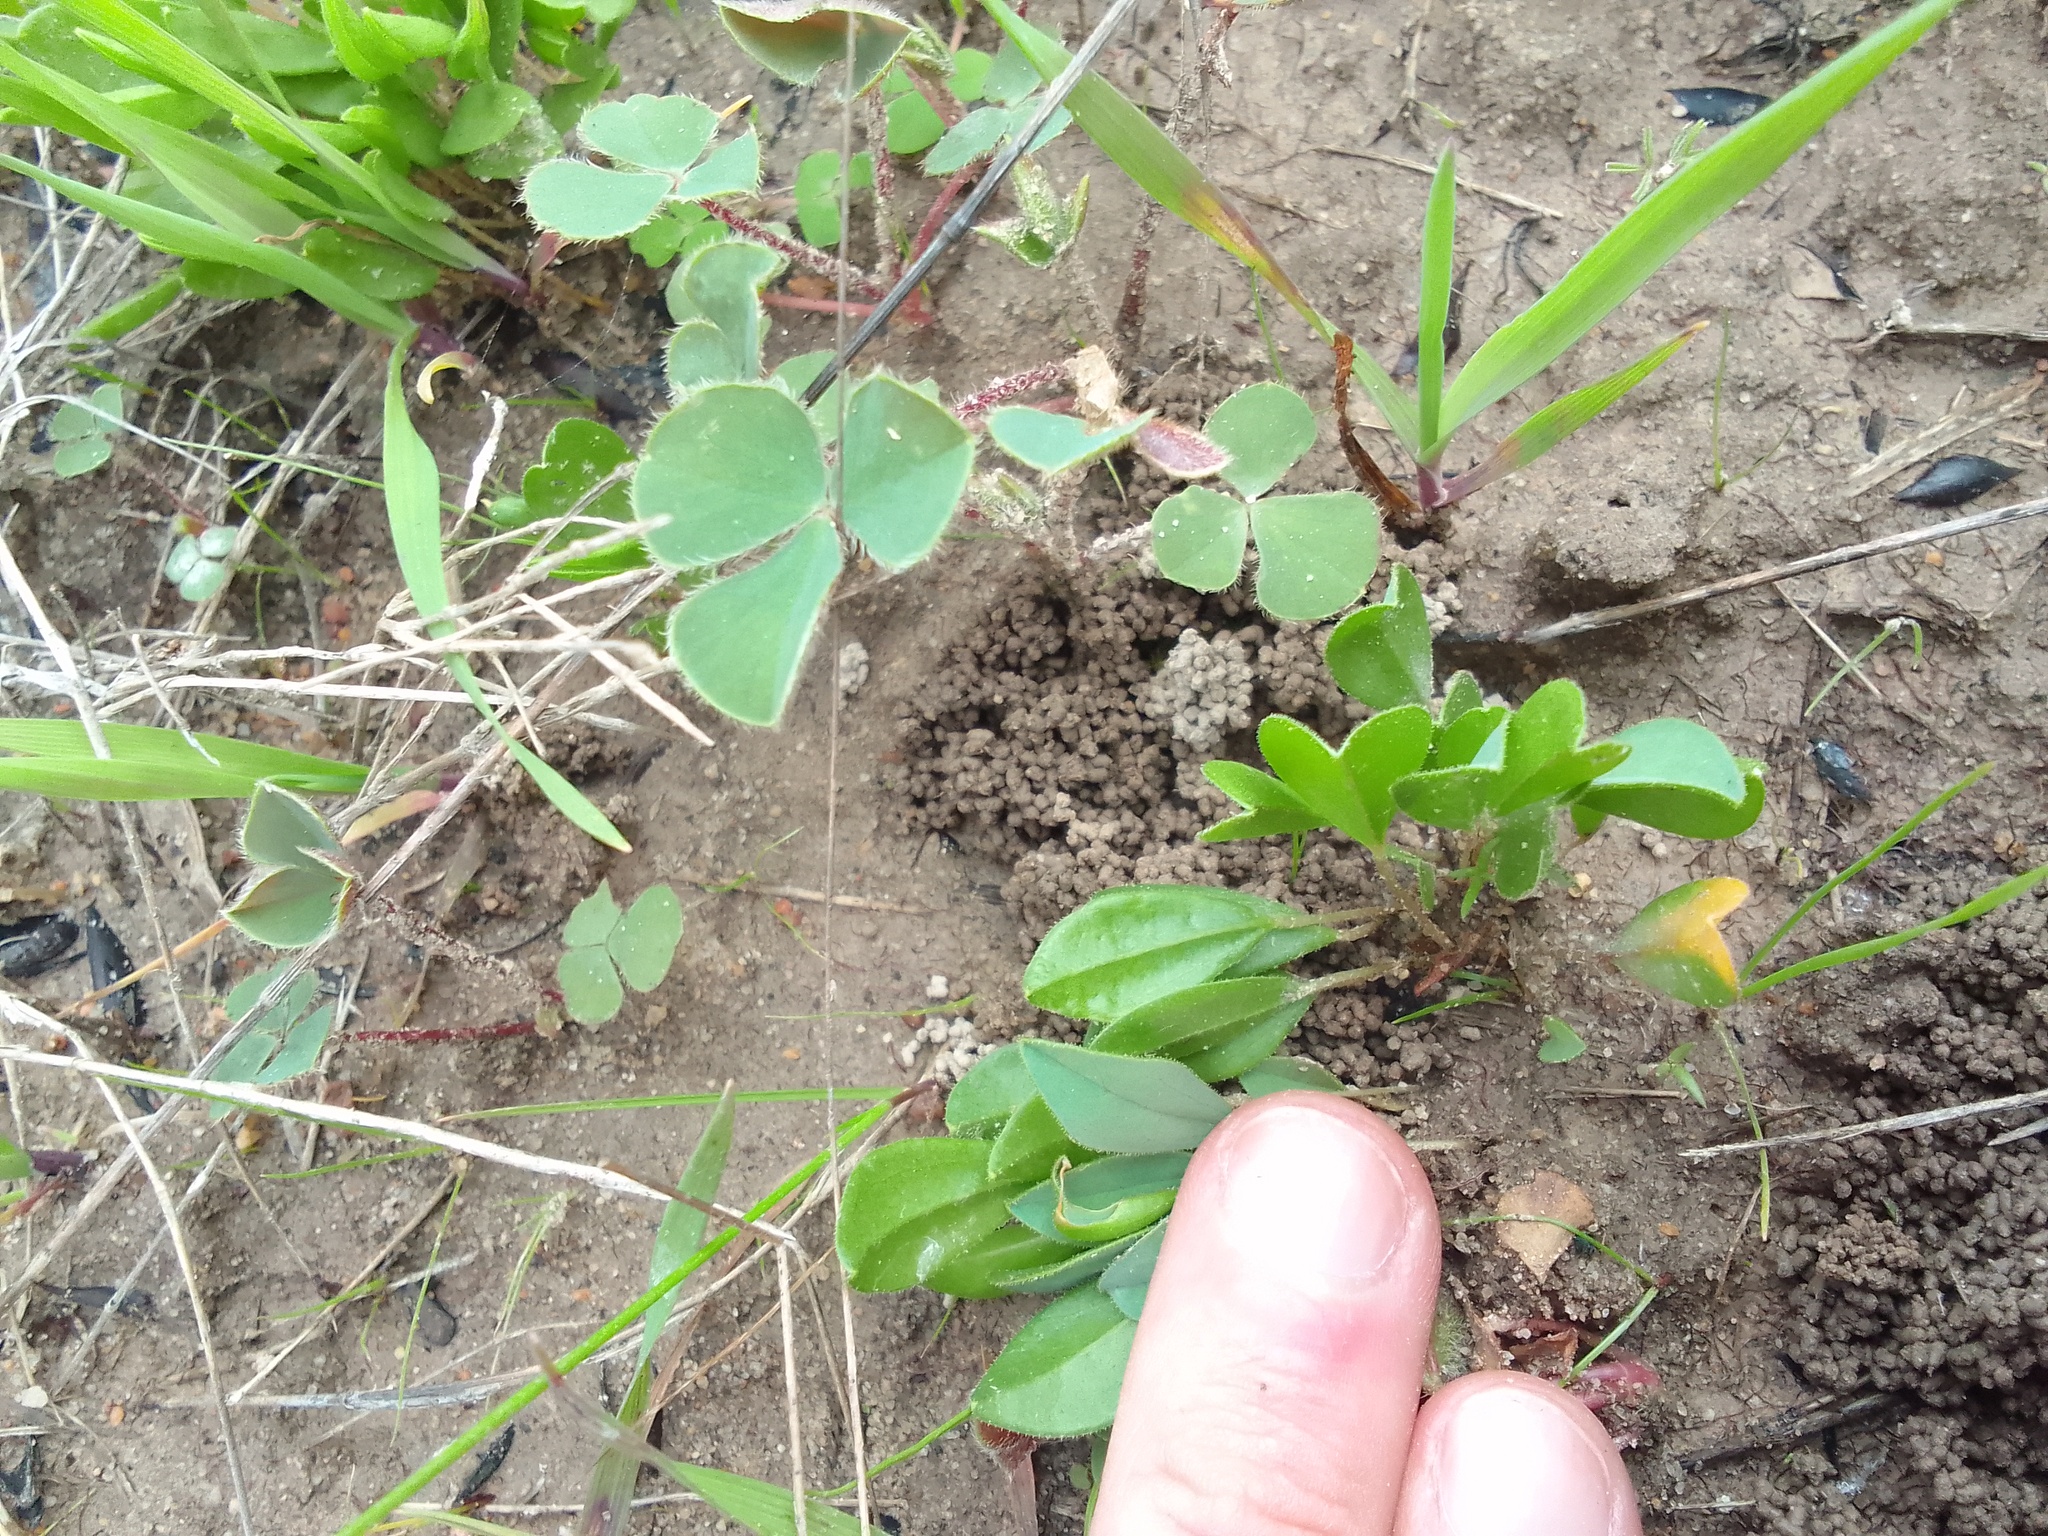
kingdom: Plantae
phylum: Tracheophyta
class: Magnoliopsida
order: Oxalidales
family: Oxalidaceae
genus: Oxalis
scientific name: Oxalis monophylla
